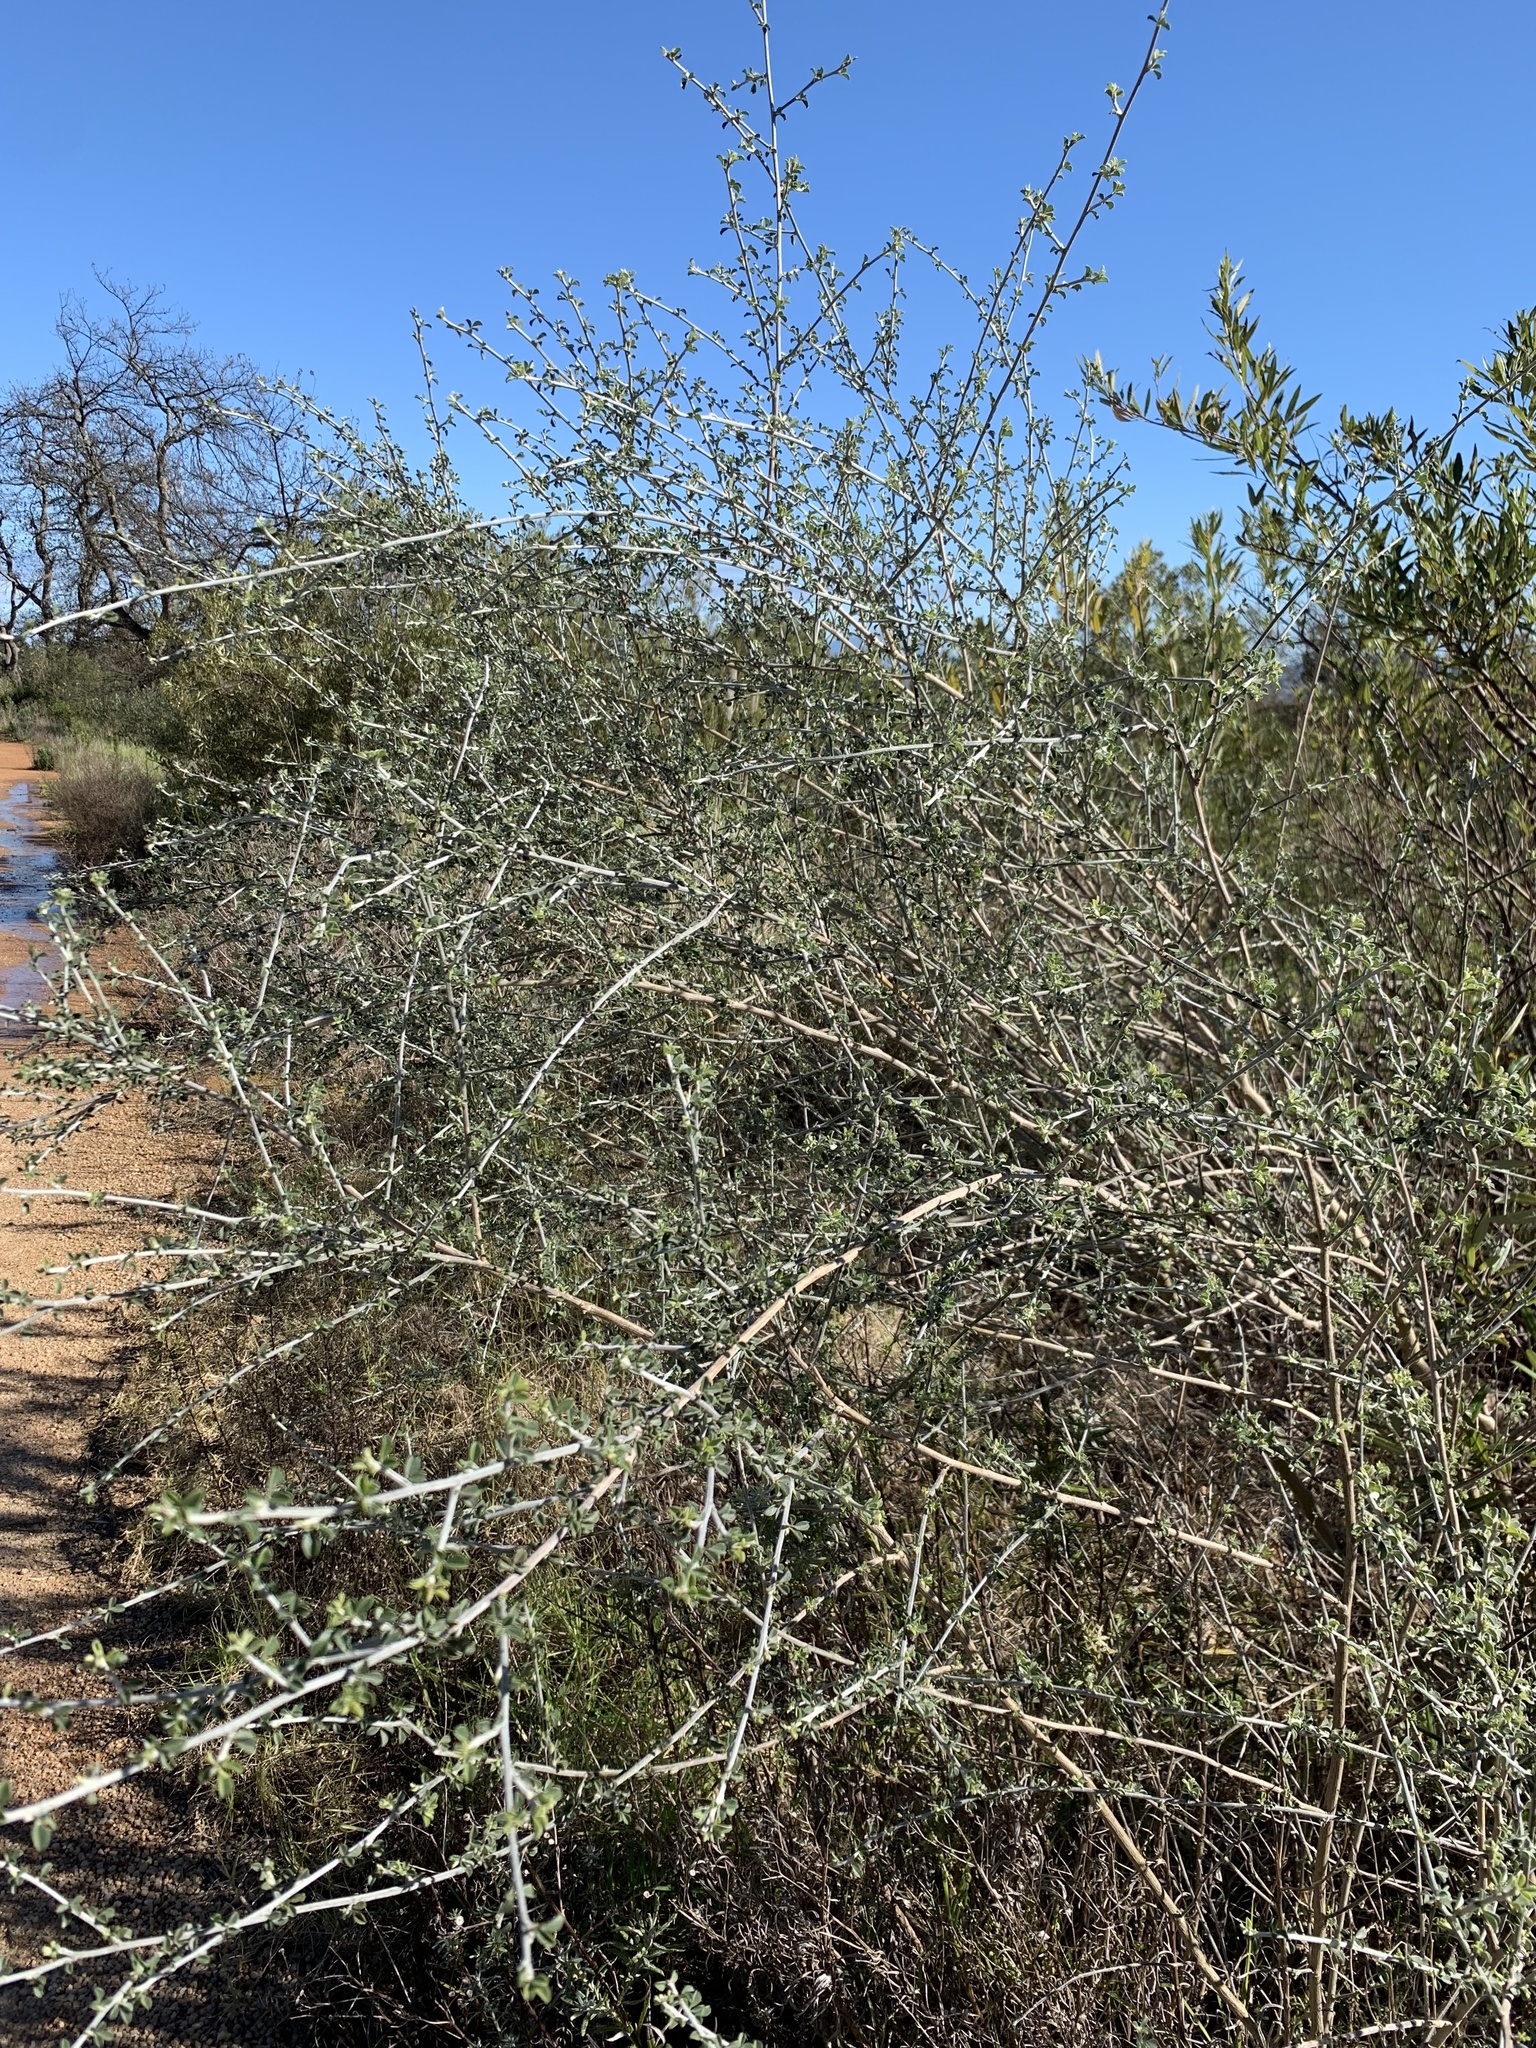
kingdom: Plantae
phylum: Tracheophyta
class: Magnoliopsida
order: Fabales
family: Fabaceae
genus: Psoralea
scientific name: Psoralea hirta
